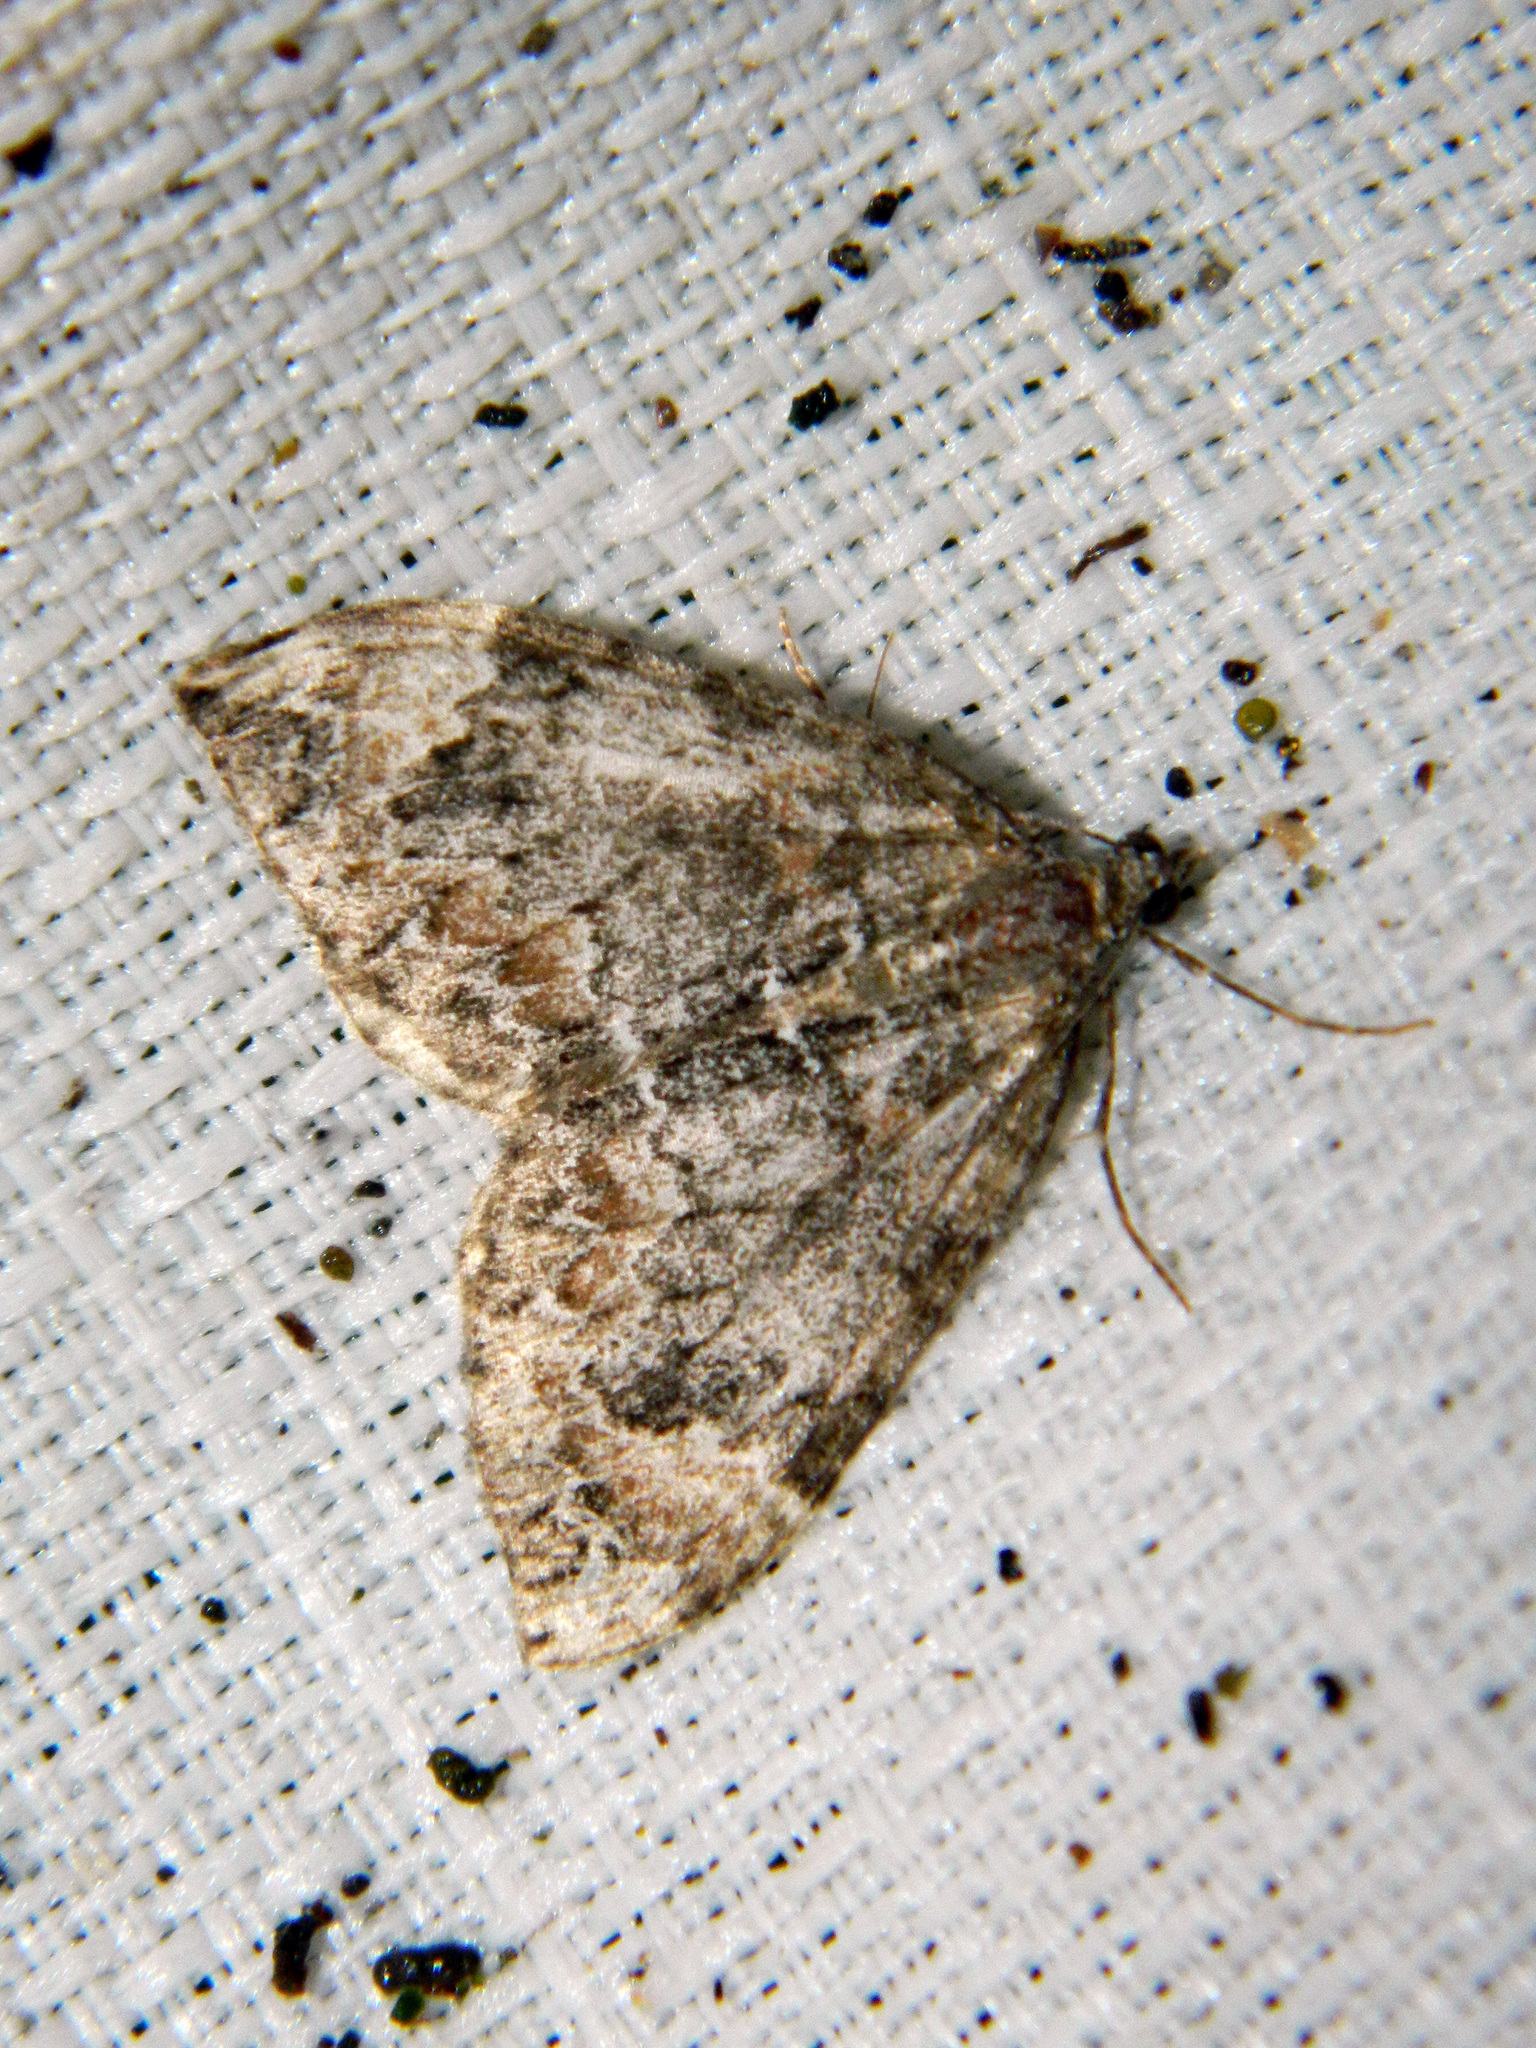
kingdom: Animalia
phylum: Arthropoda
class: Insecta
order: Lepidoptera
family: Geometridae
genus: Dysstroma
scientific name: Dysstroma citrata
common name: Dark marbled carpet
